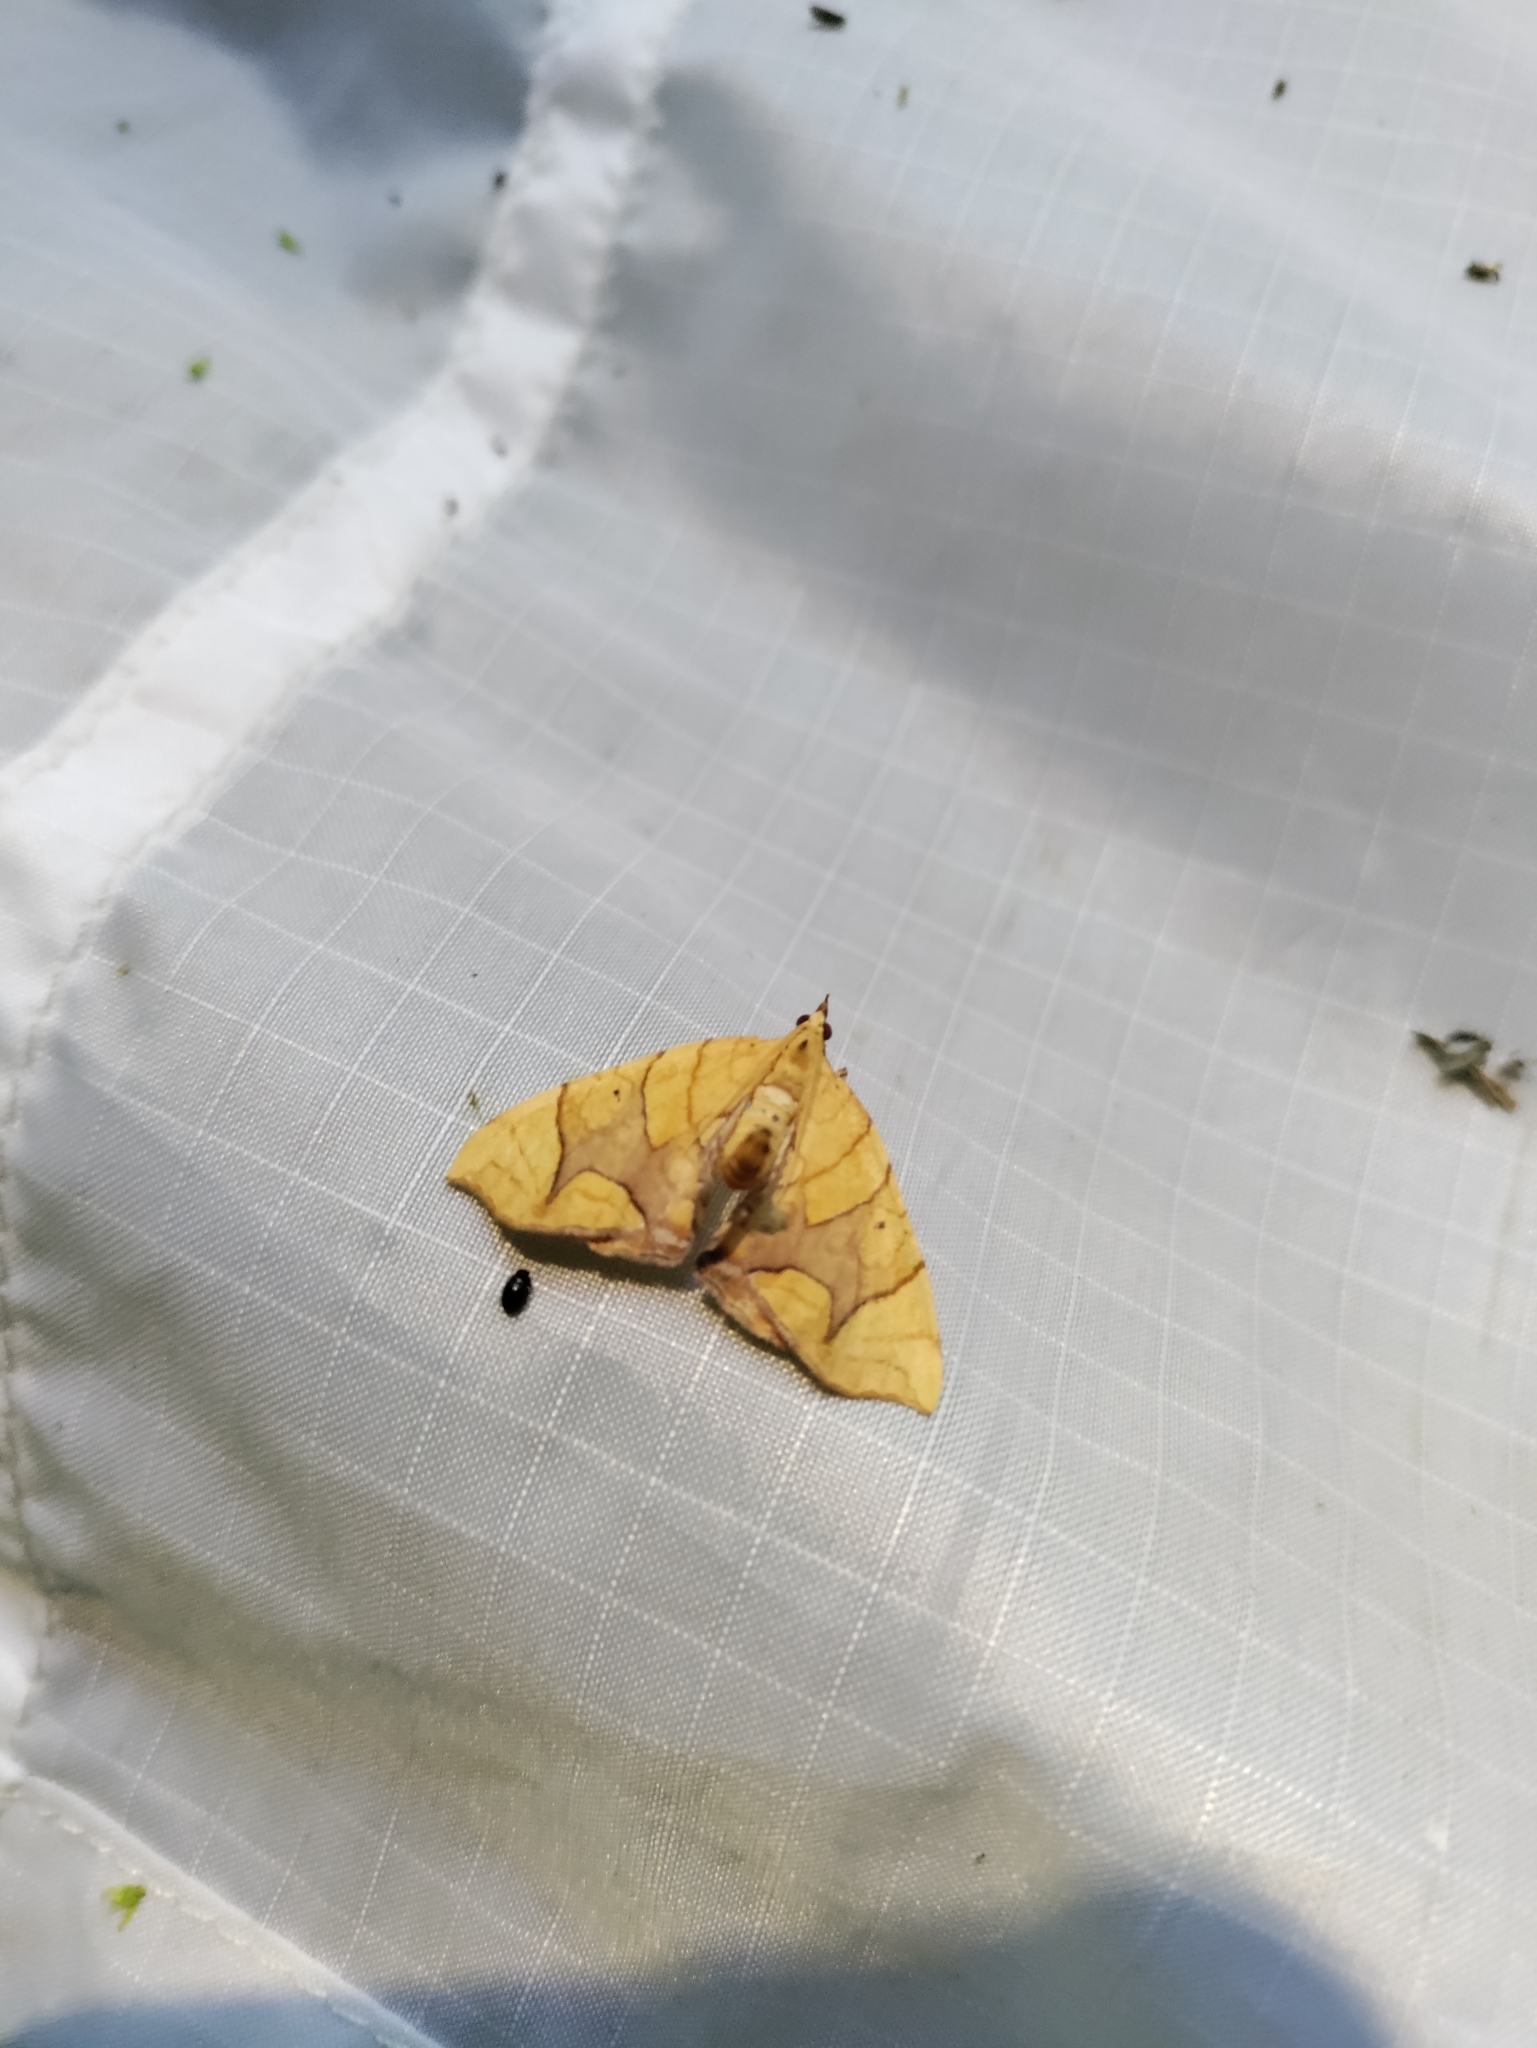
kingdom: Animalia
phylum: Arthropoda
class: Insecta
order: Lepidoptera
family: Geometridae
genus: Eulithis
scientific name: Eulithis diversilineata
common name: Grapevine looper
